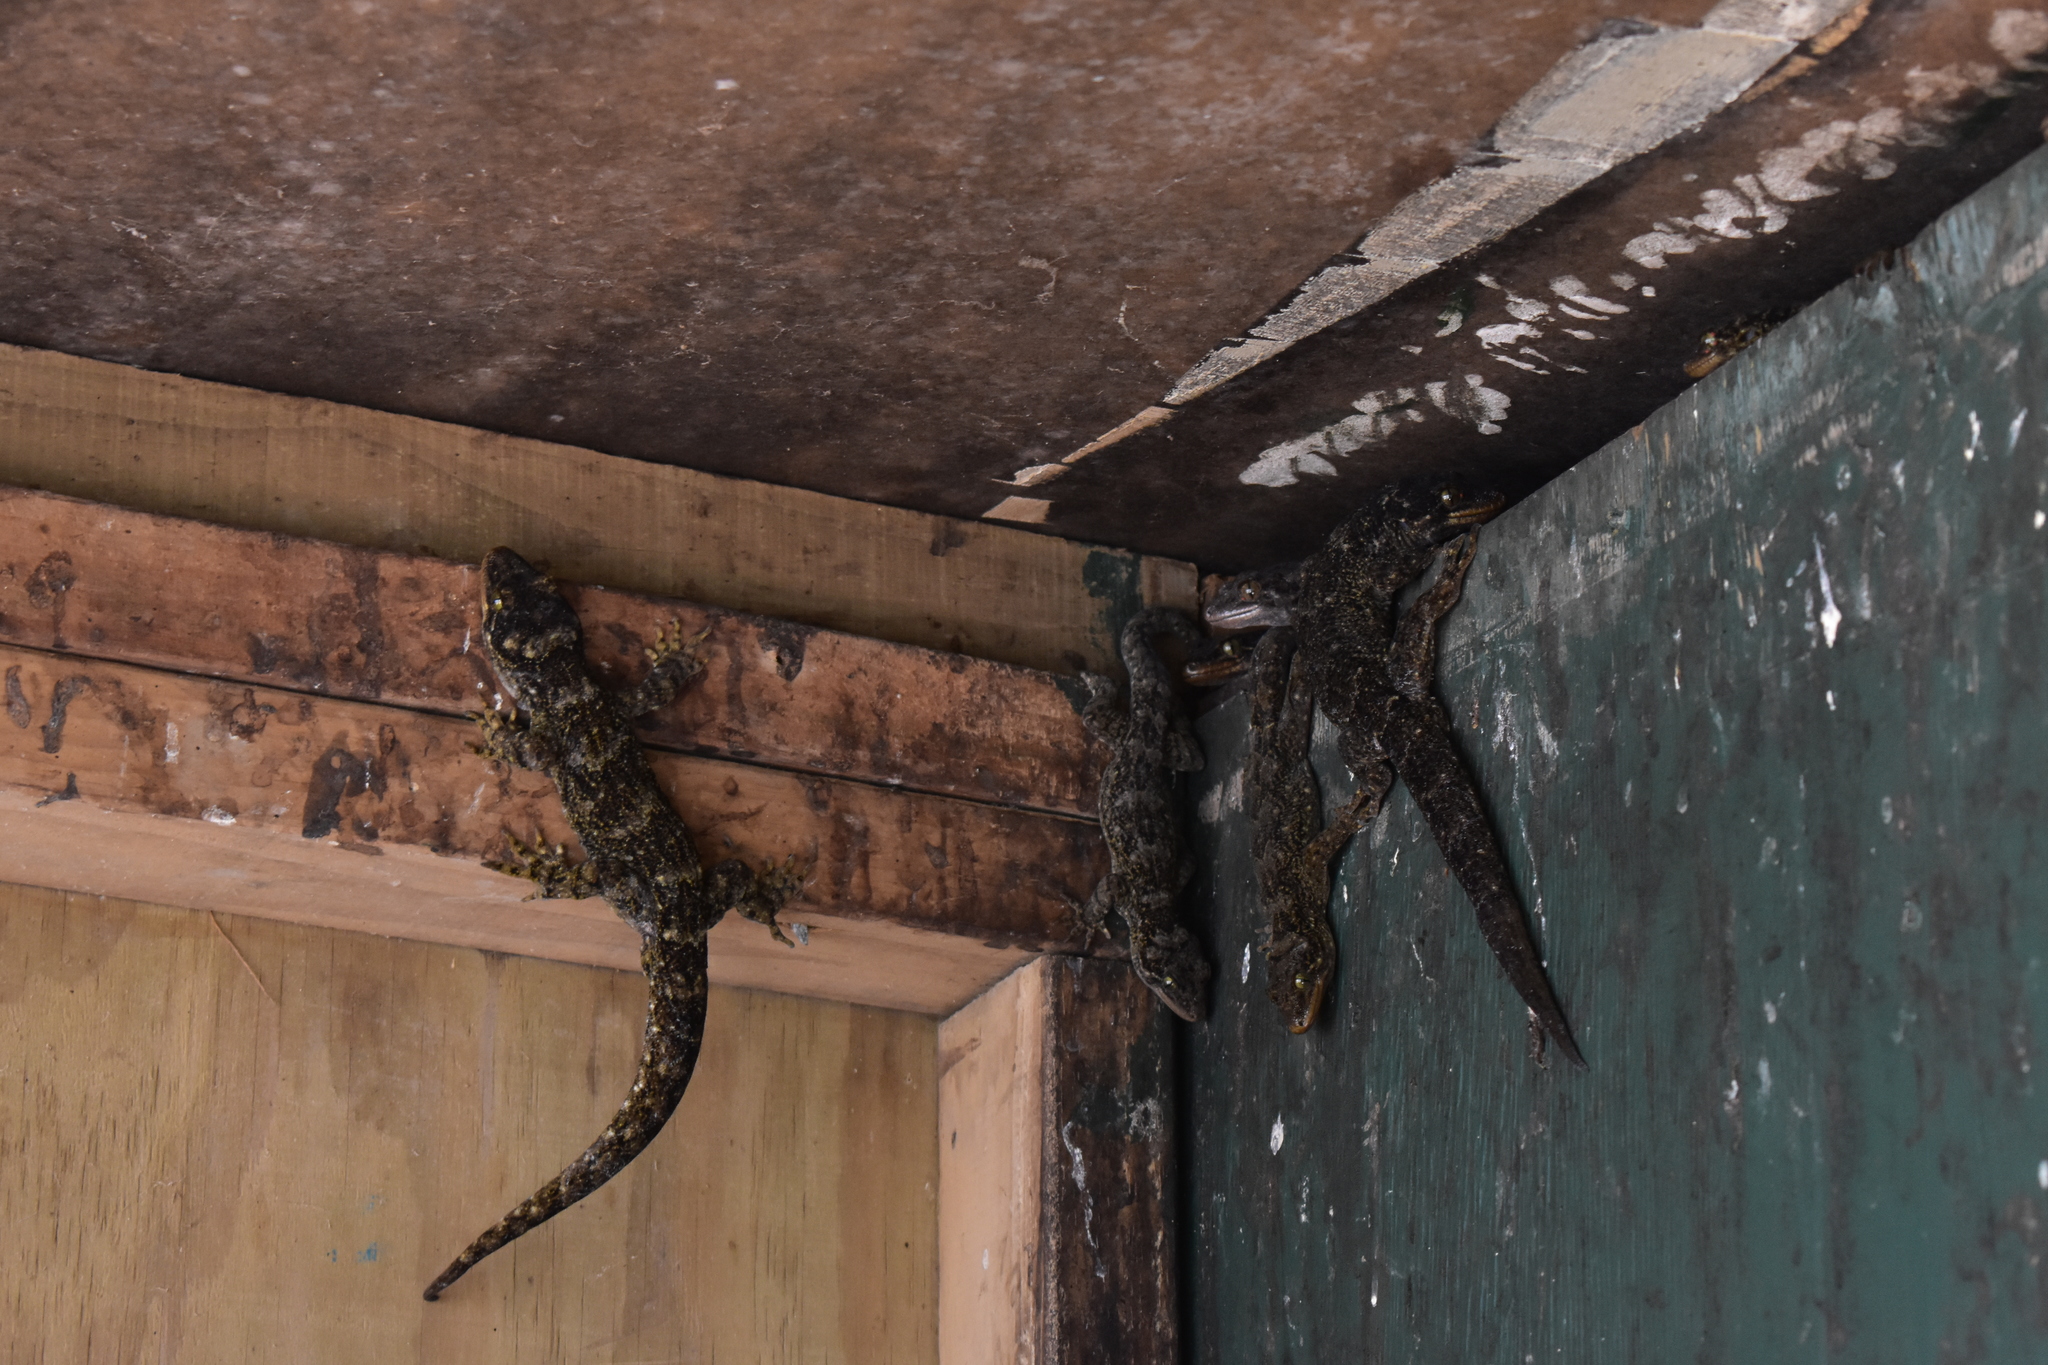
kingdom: Animalia
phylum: Chordata
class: Squamata
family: Diplodactylidae
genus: Hoplodactylus
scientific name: Hoplodactylus duvaucelii
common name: Duvaucel's gecko
